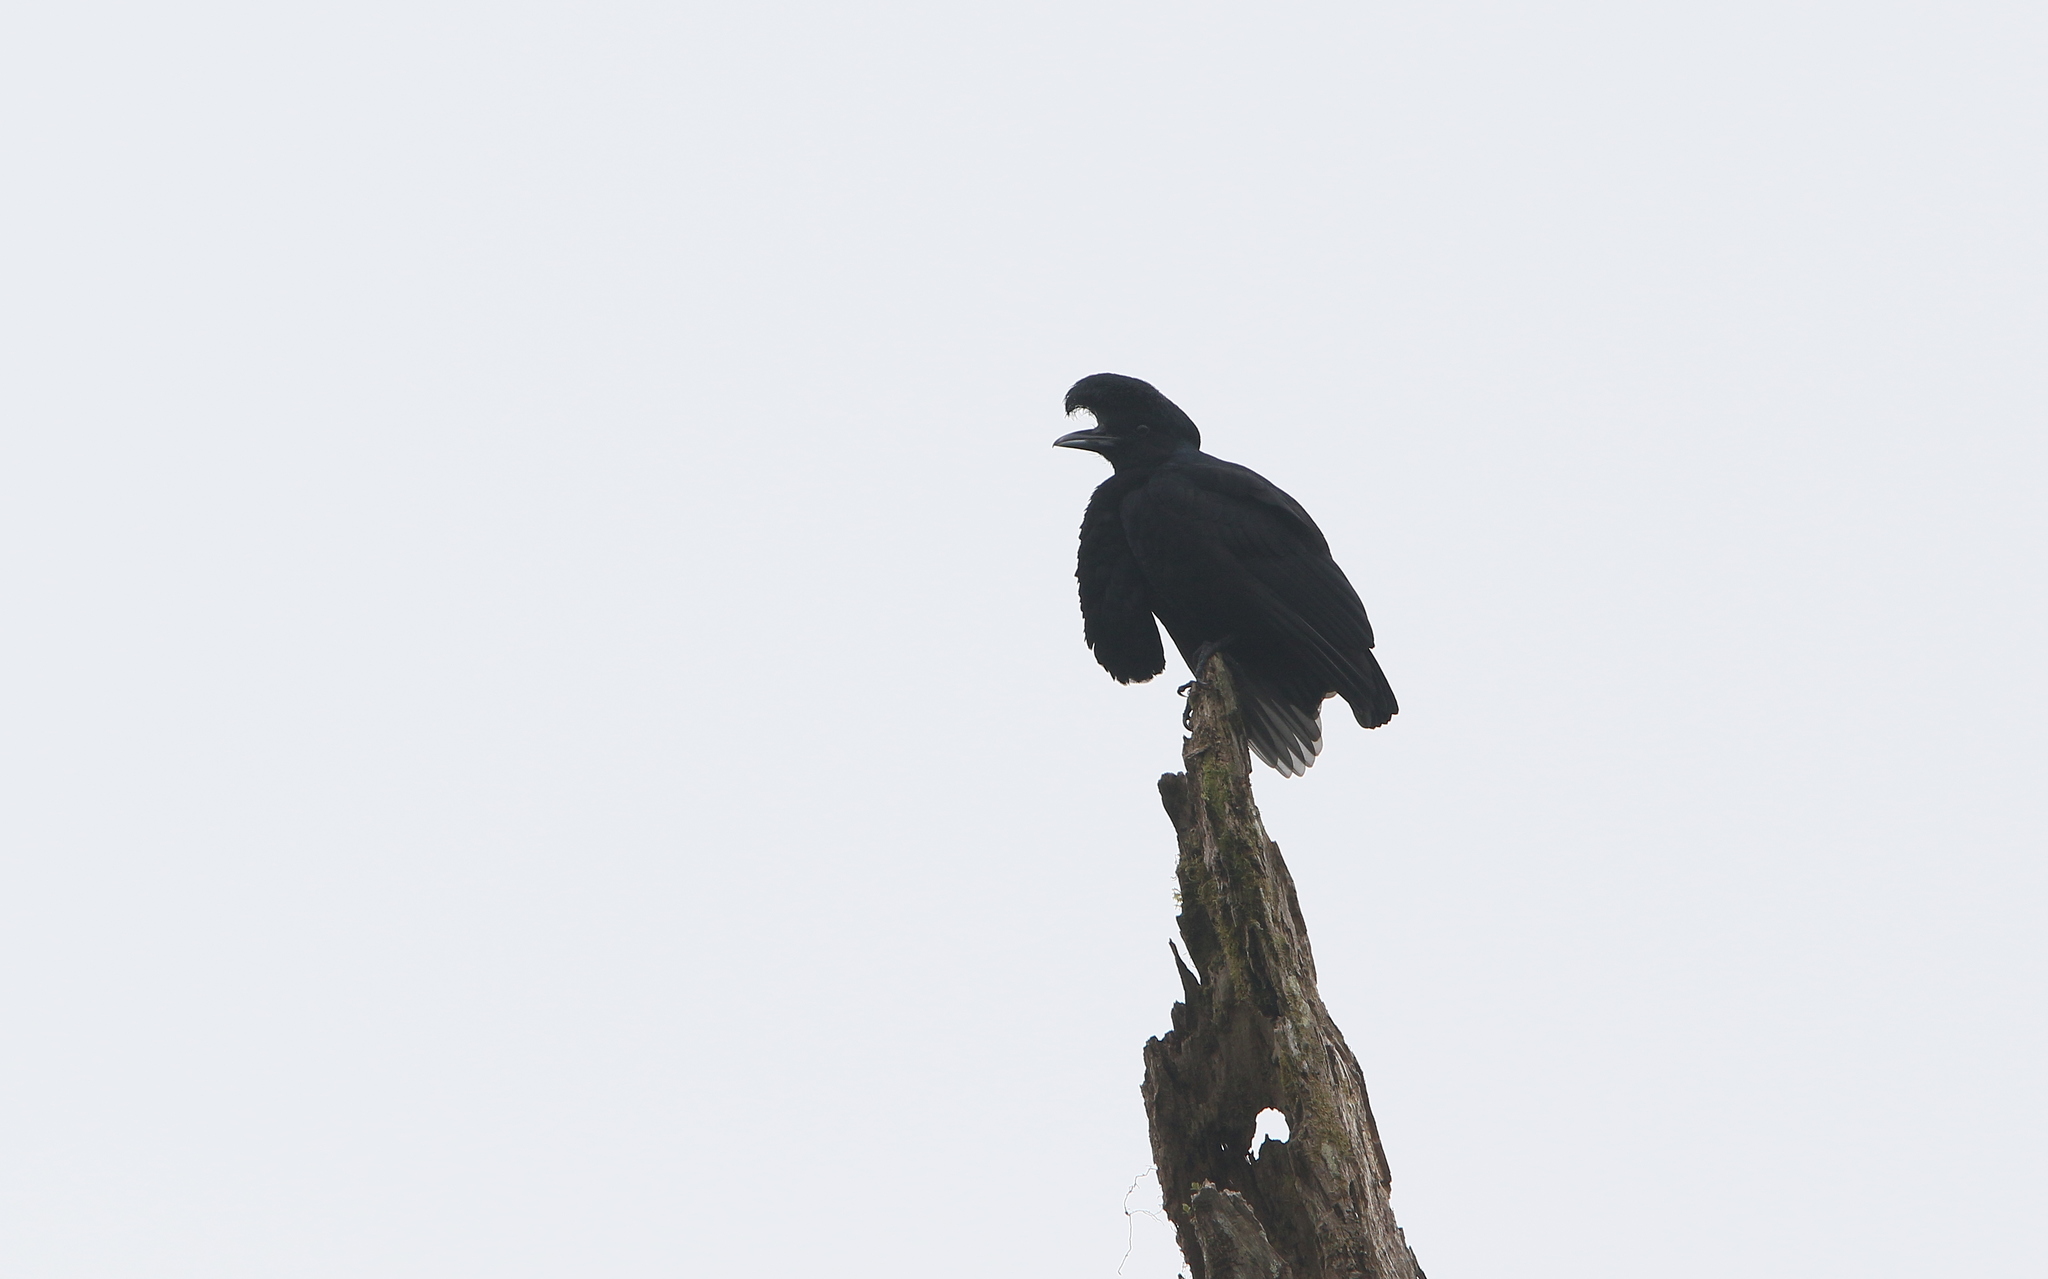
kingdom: Animalia
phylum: Chordata
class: Aves
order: Passeriformes
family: Cotingidae
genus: Cephalopterus
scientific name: Cephalopterus penduliger
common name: Long-wattled umbrellabird
